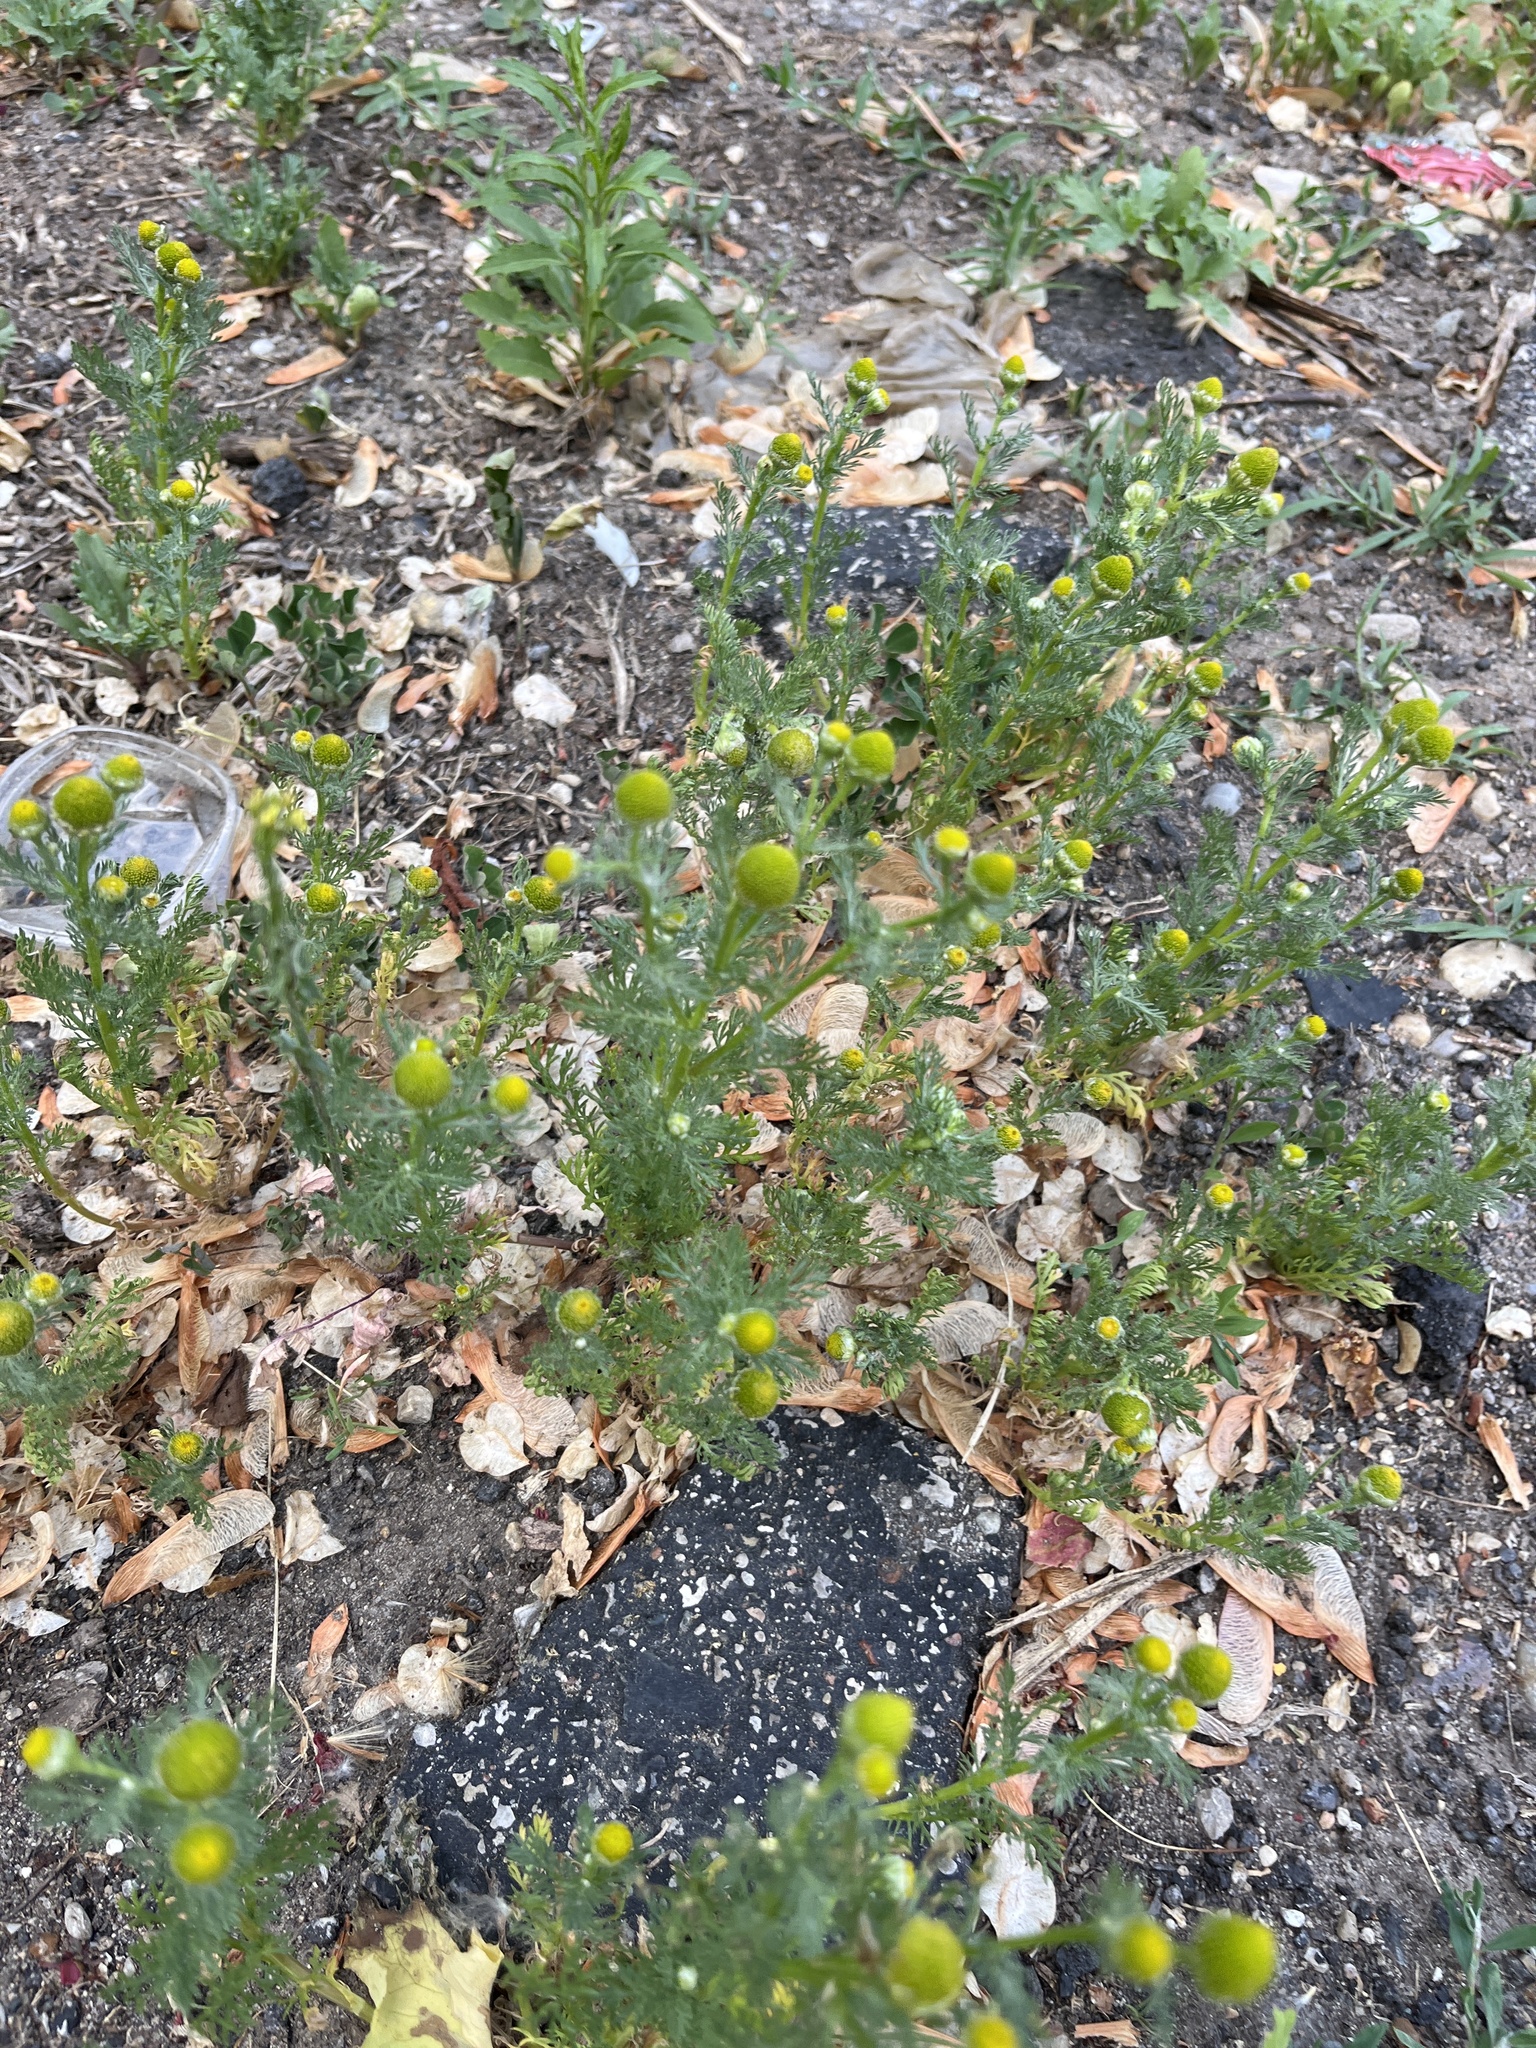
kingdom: Plantae
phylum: Tracheophyta
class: Magnoliopsida
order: Asterales
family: Asteraceae
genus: Matricaria
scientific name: Matricaria discoidea
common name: Disc mayweed
